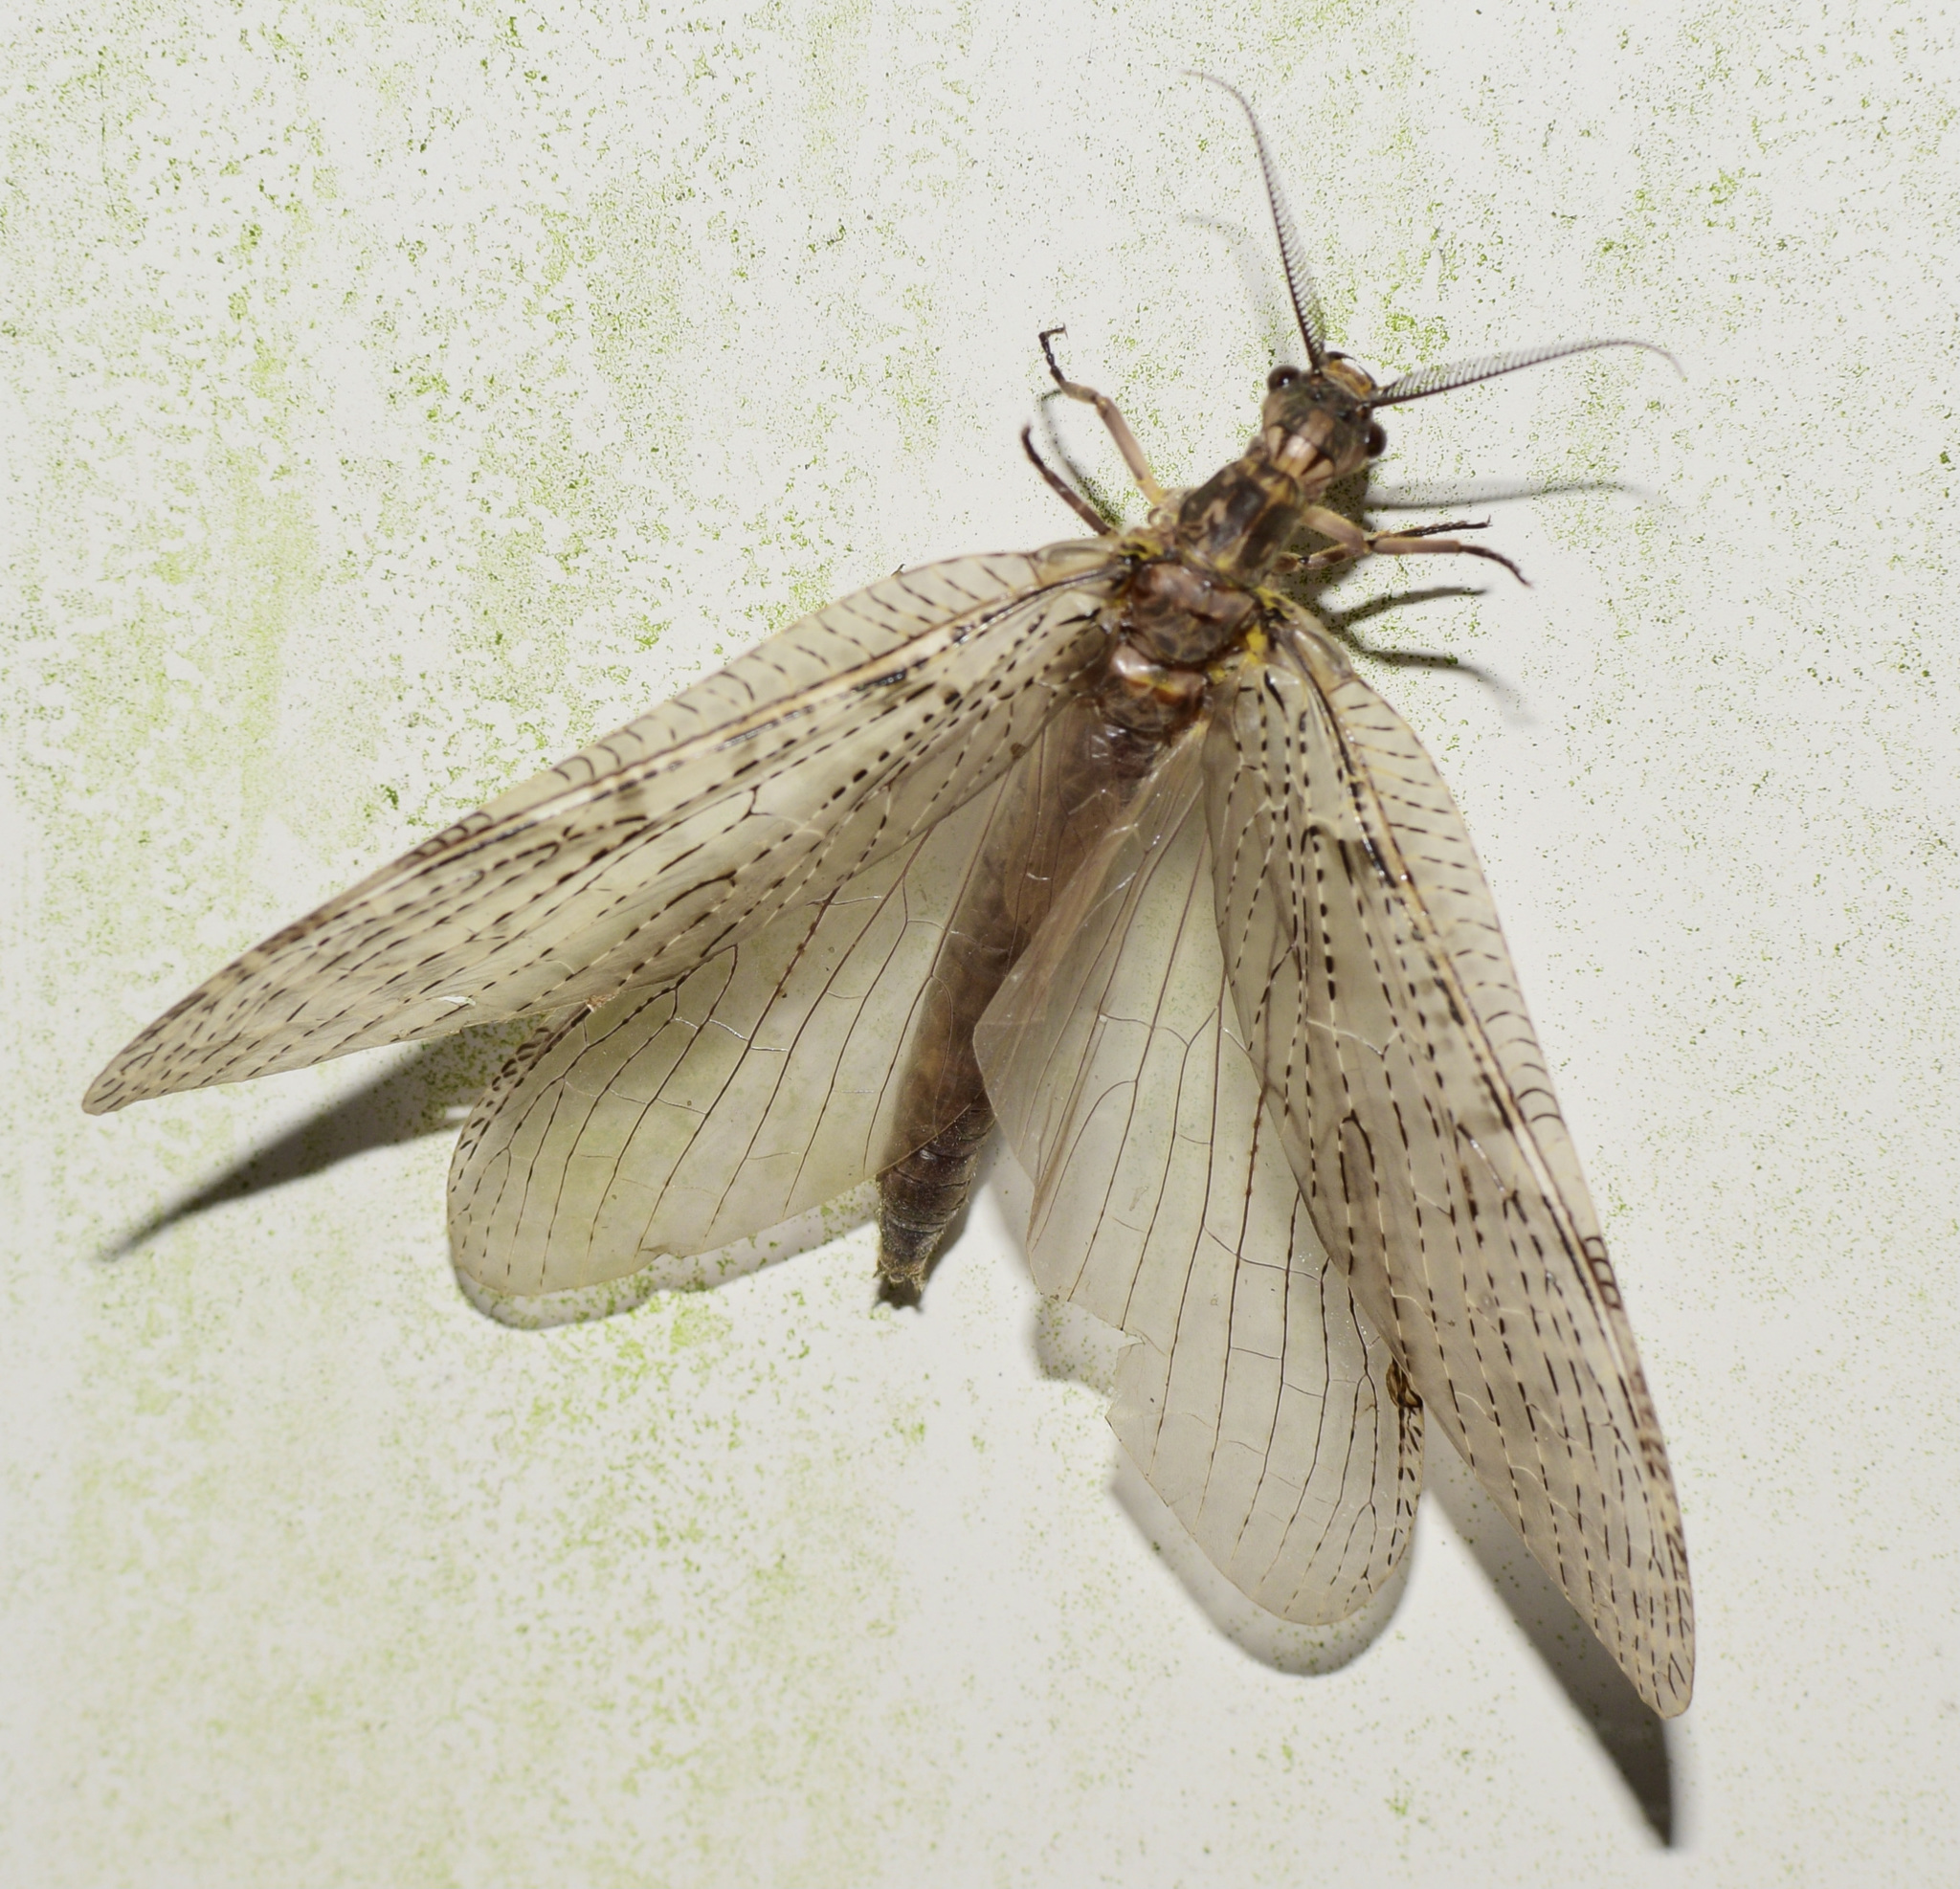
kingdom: Animalia
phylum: Arthropoda
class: Insecta
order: Megaloptera
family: Corydalidae
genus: Chauliodes
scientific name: Chauliodes pectinicornis
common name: Summer fishfly
